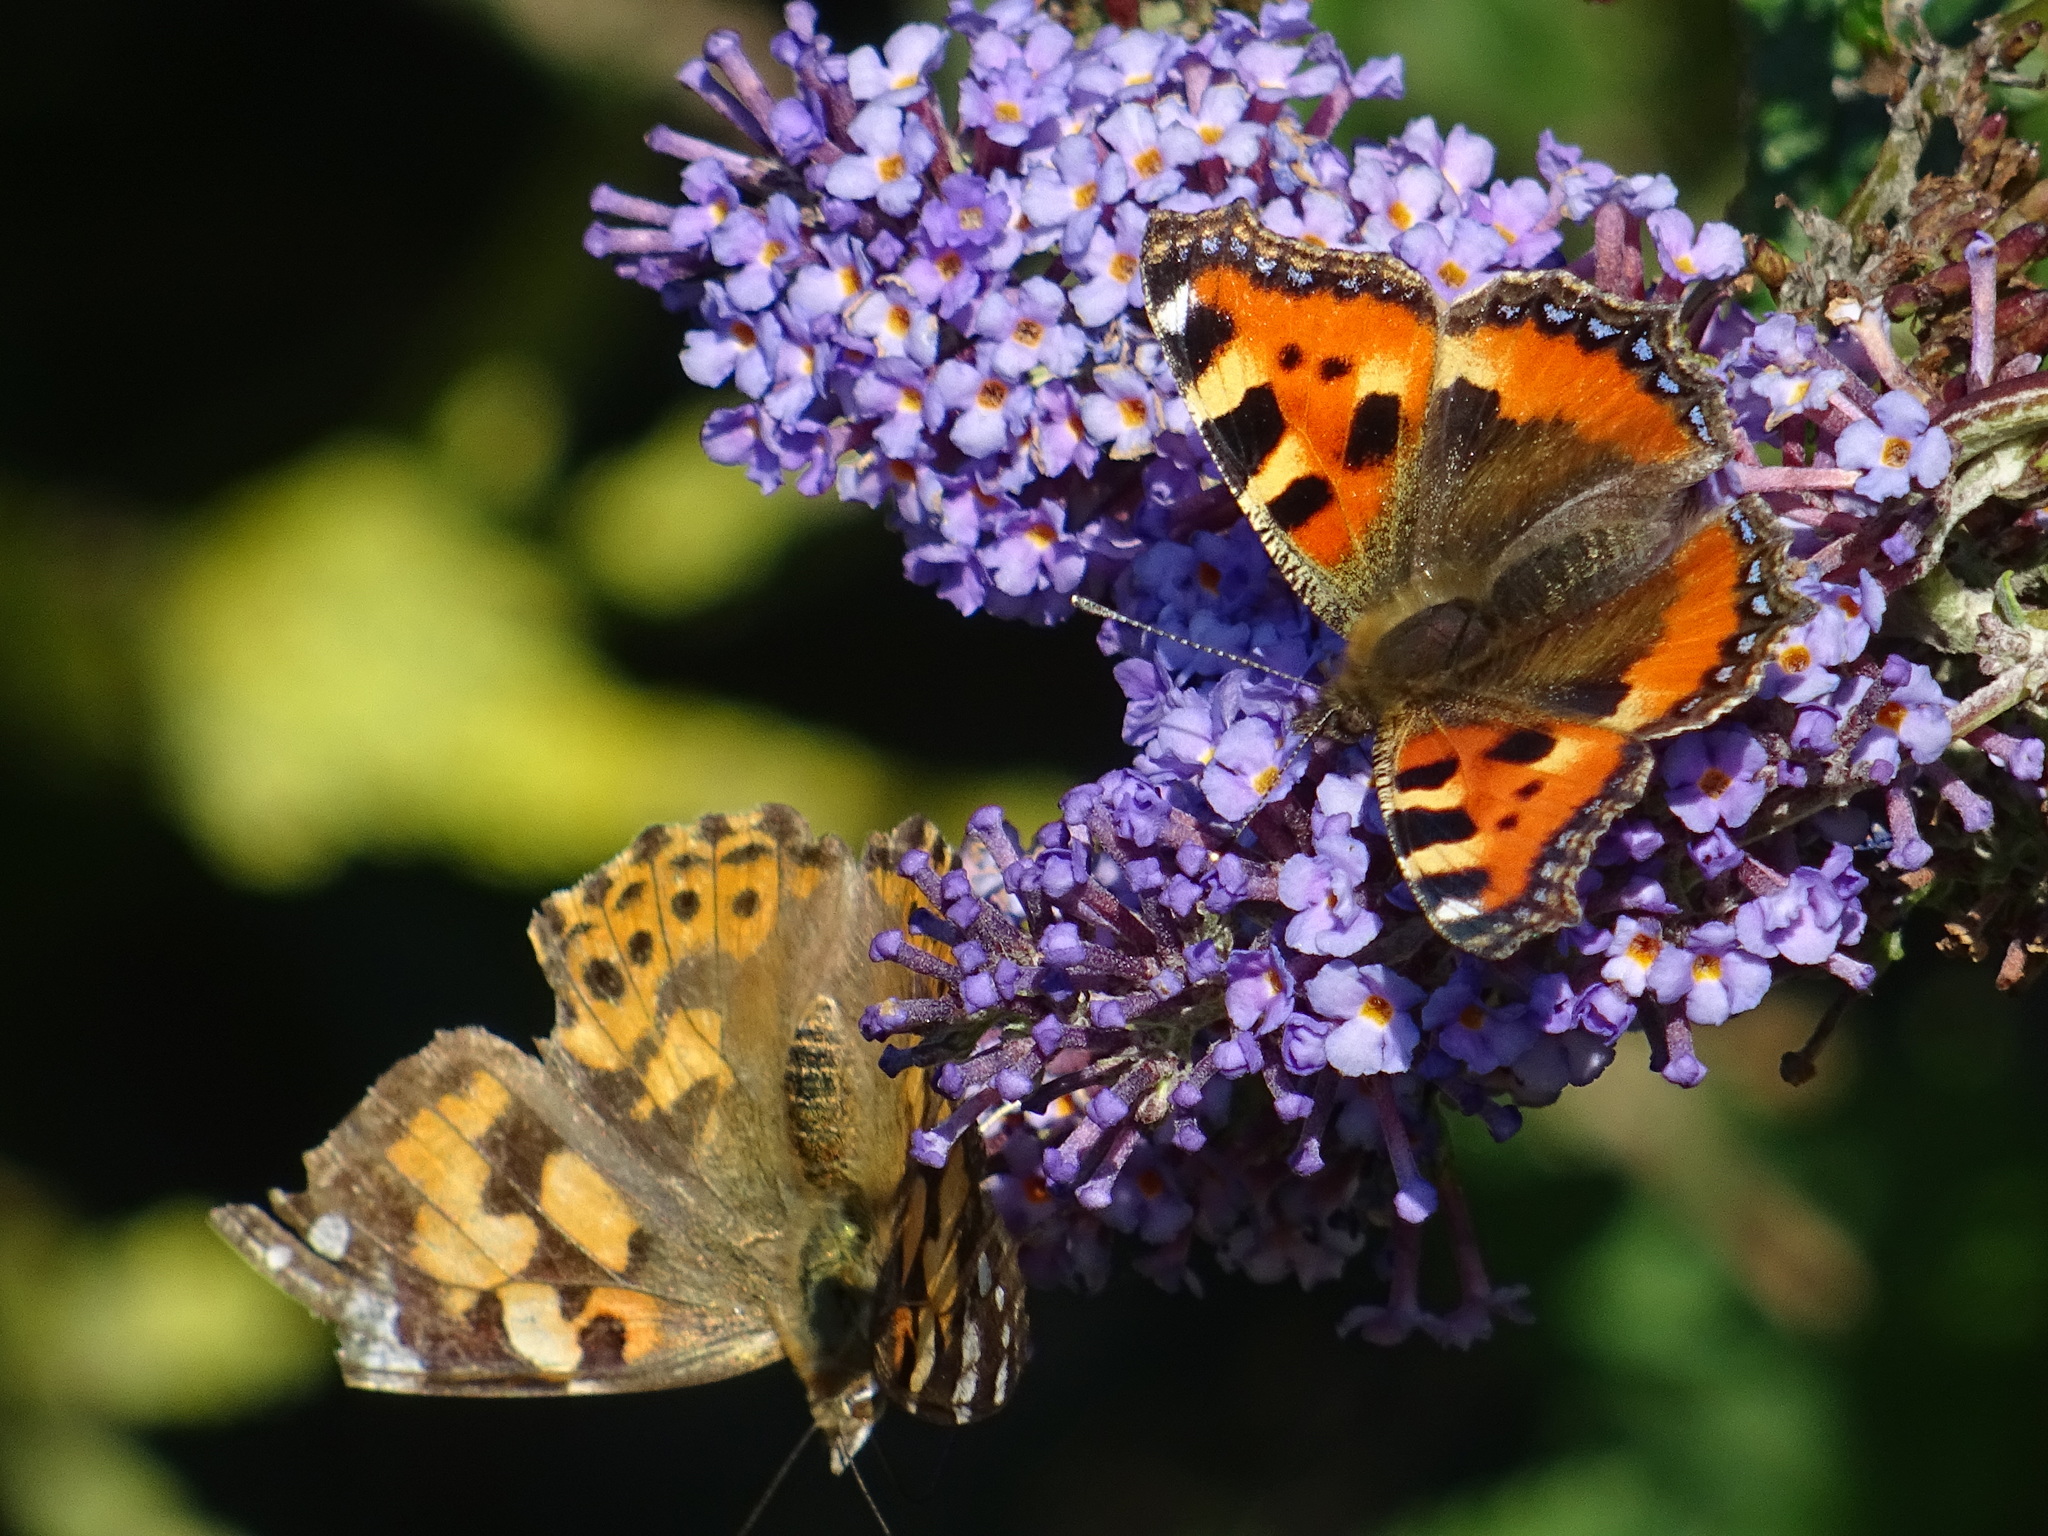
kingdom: Animalia
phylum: Arthropoda
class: Insecta
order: Lepidoptera
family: Nymphalidae
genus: Aglais
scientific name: Aglais urticae
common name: Small tortoiseshell
